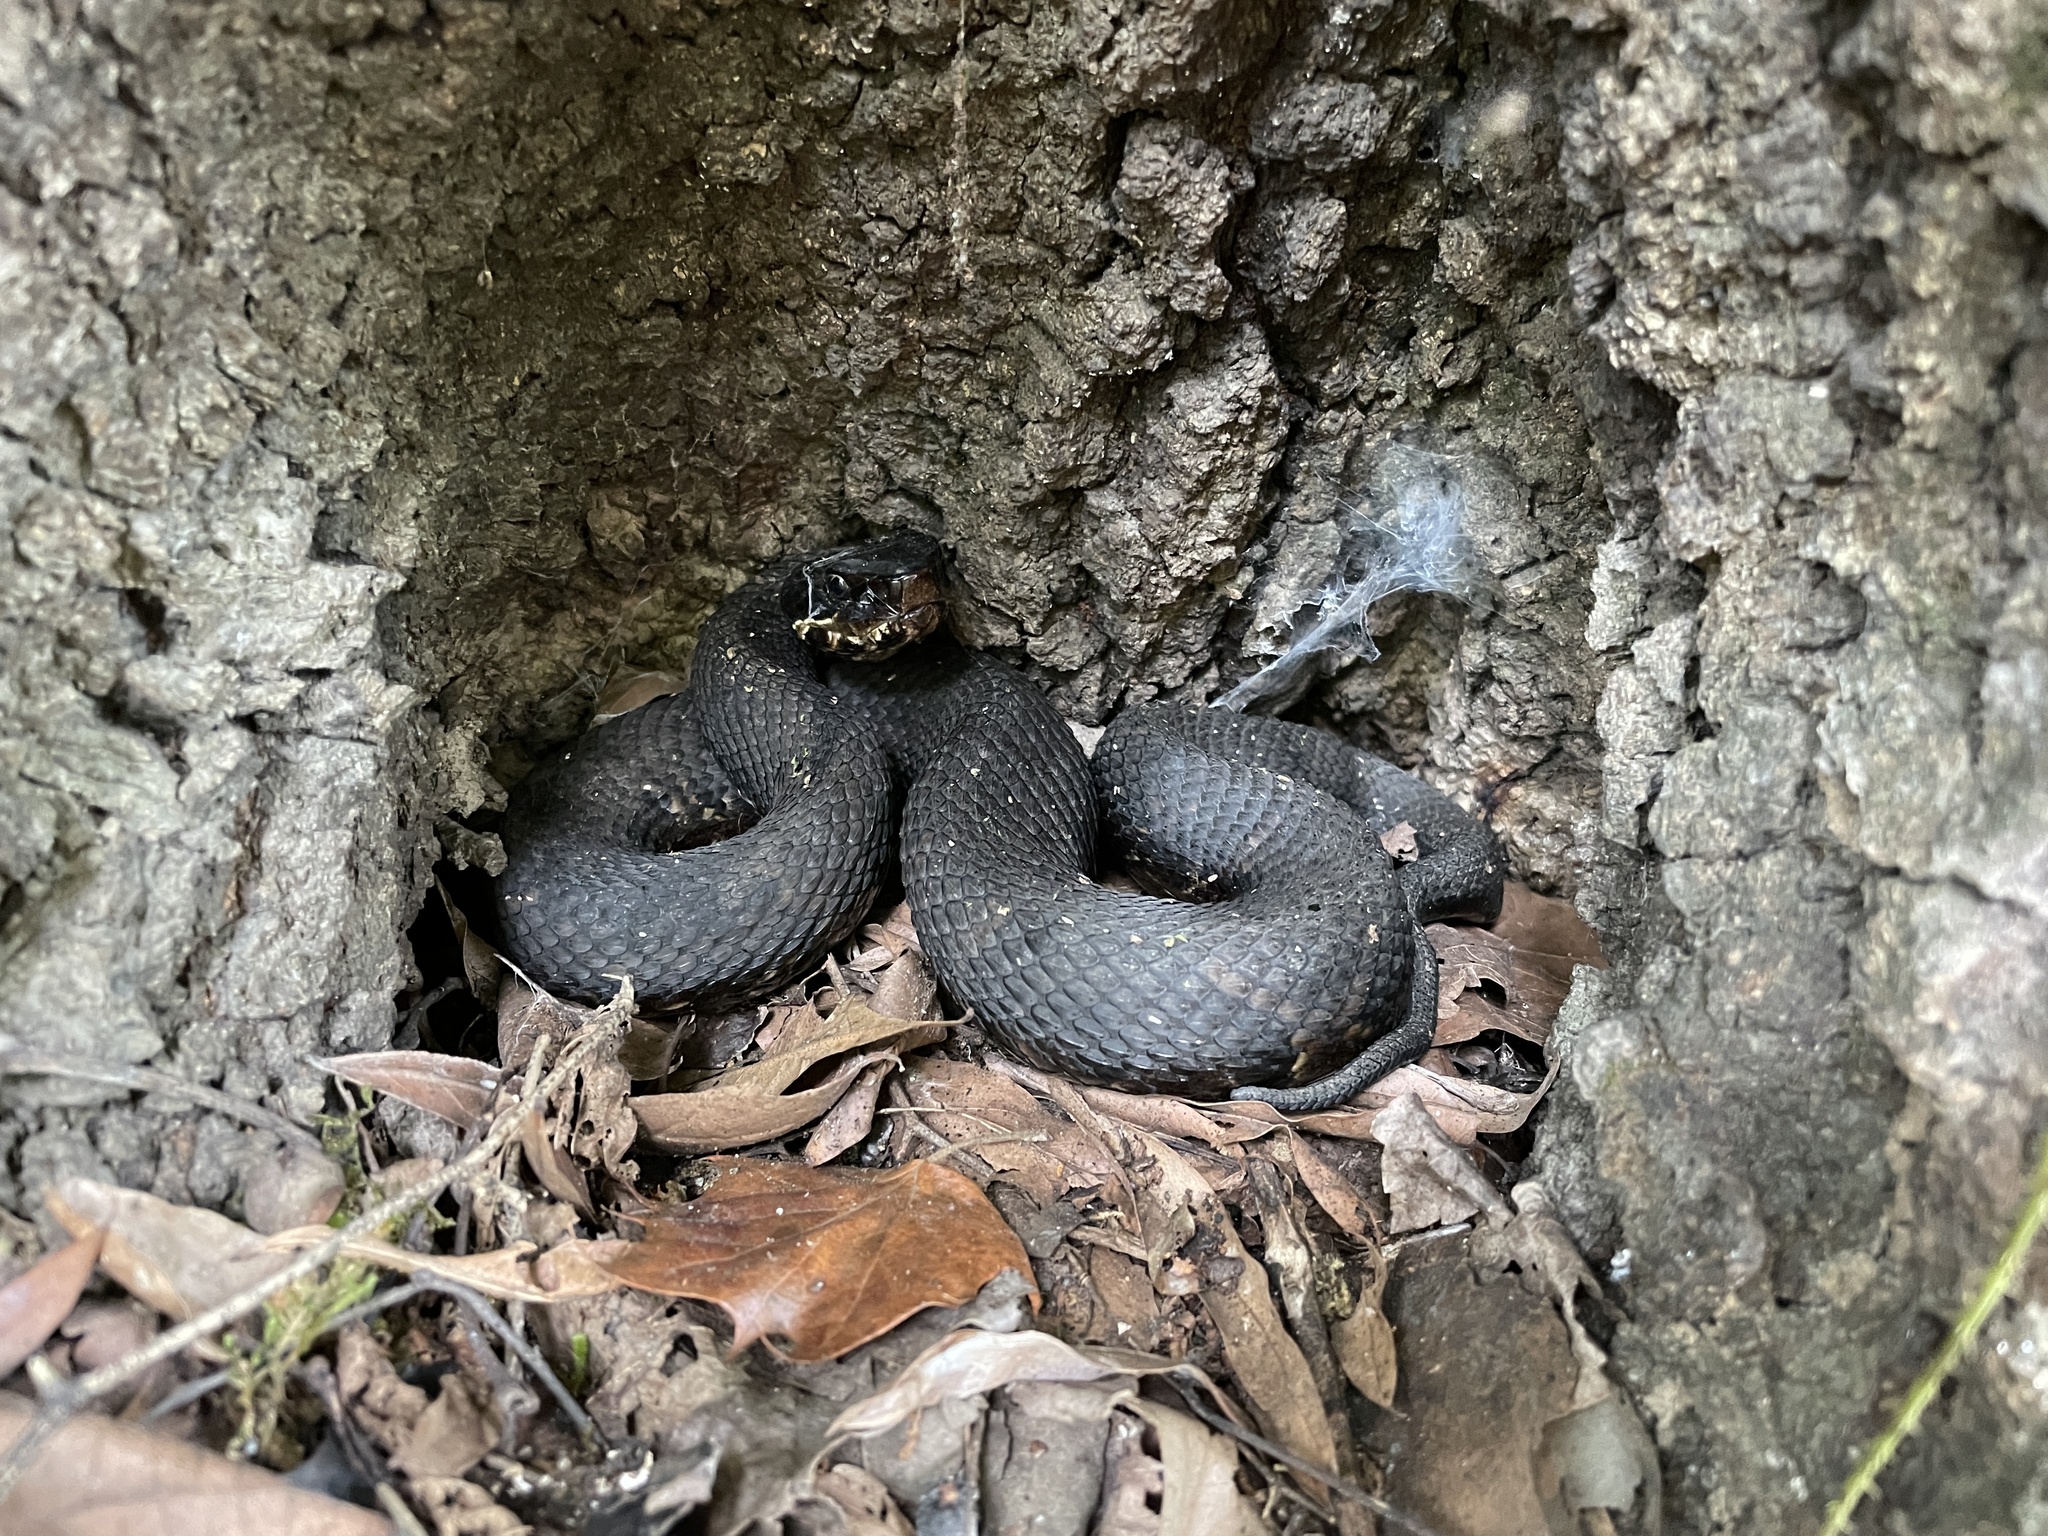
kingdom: Animalia
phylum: Chordata
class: Squamata
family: Viperidae
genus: Agkistrodon
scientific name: Agkistrodon piscivorus
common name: Cottonmouth
